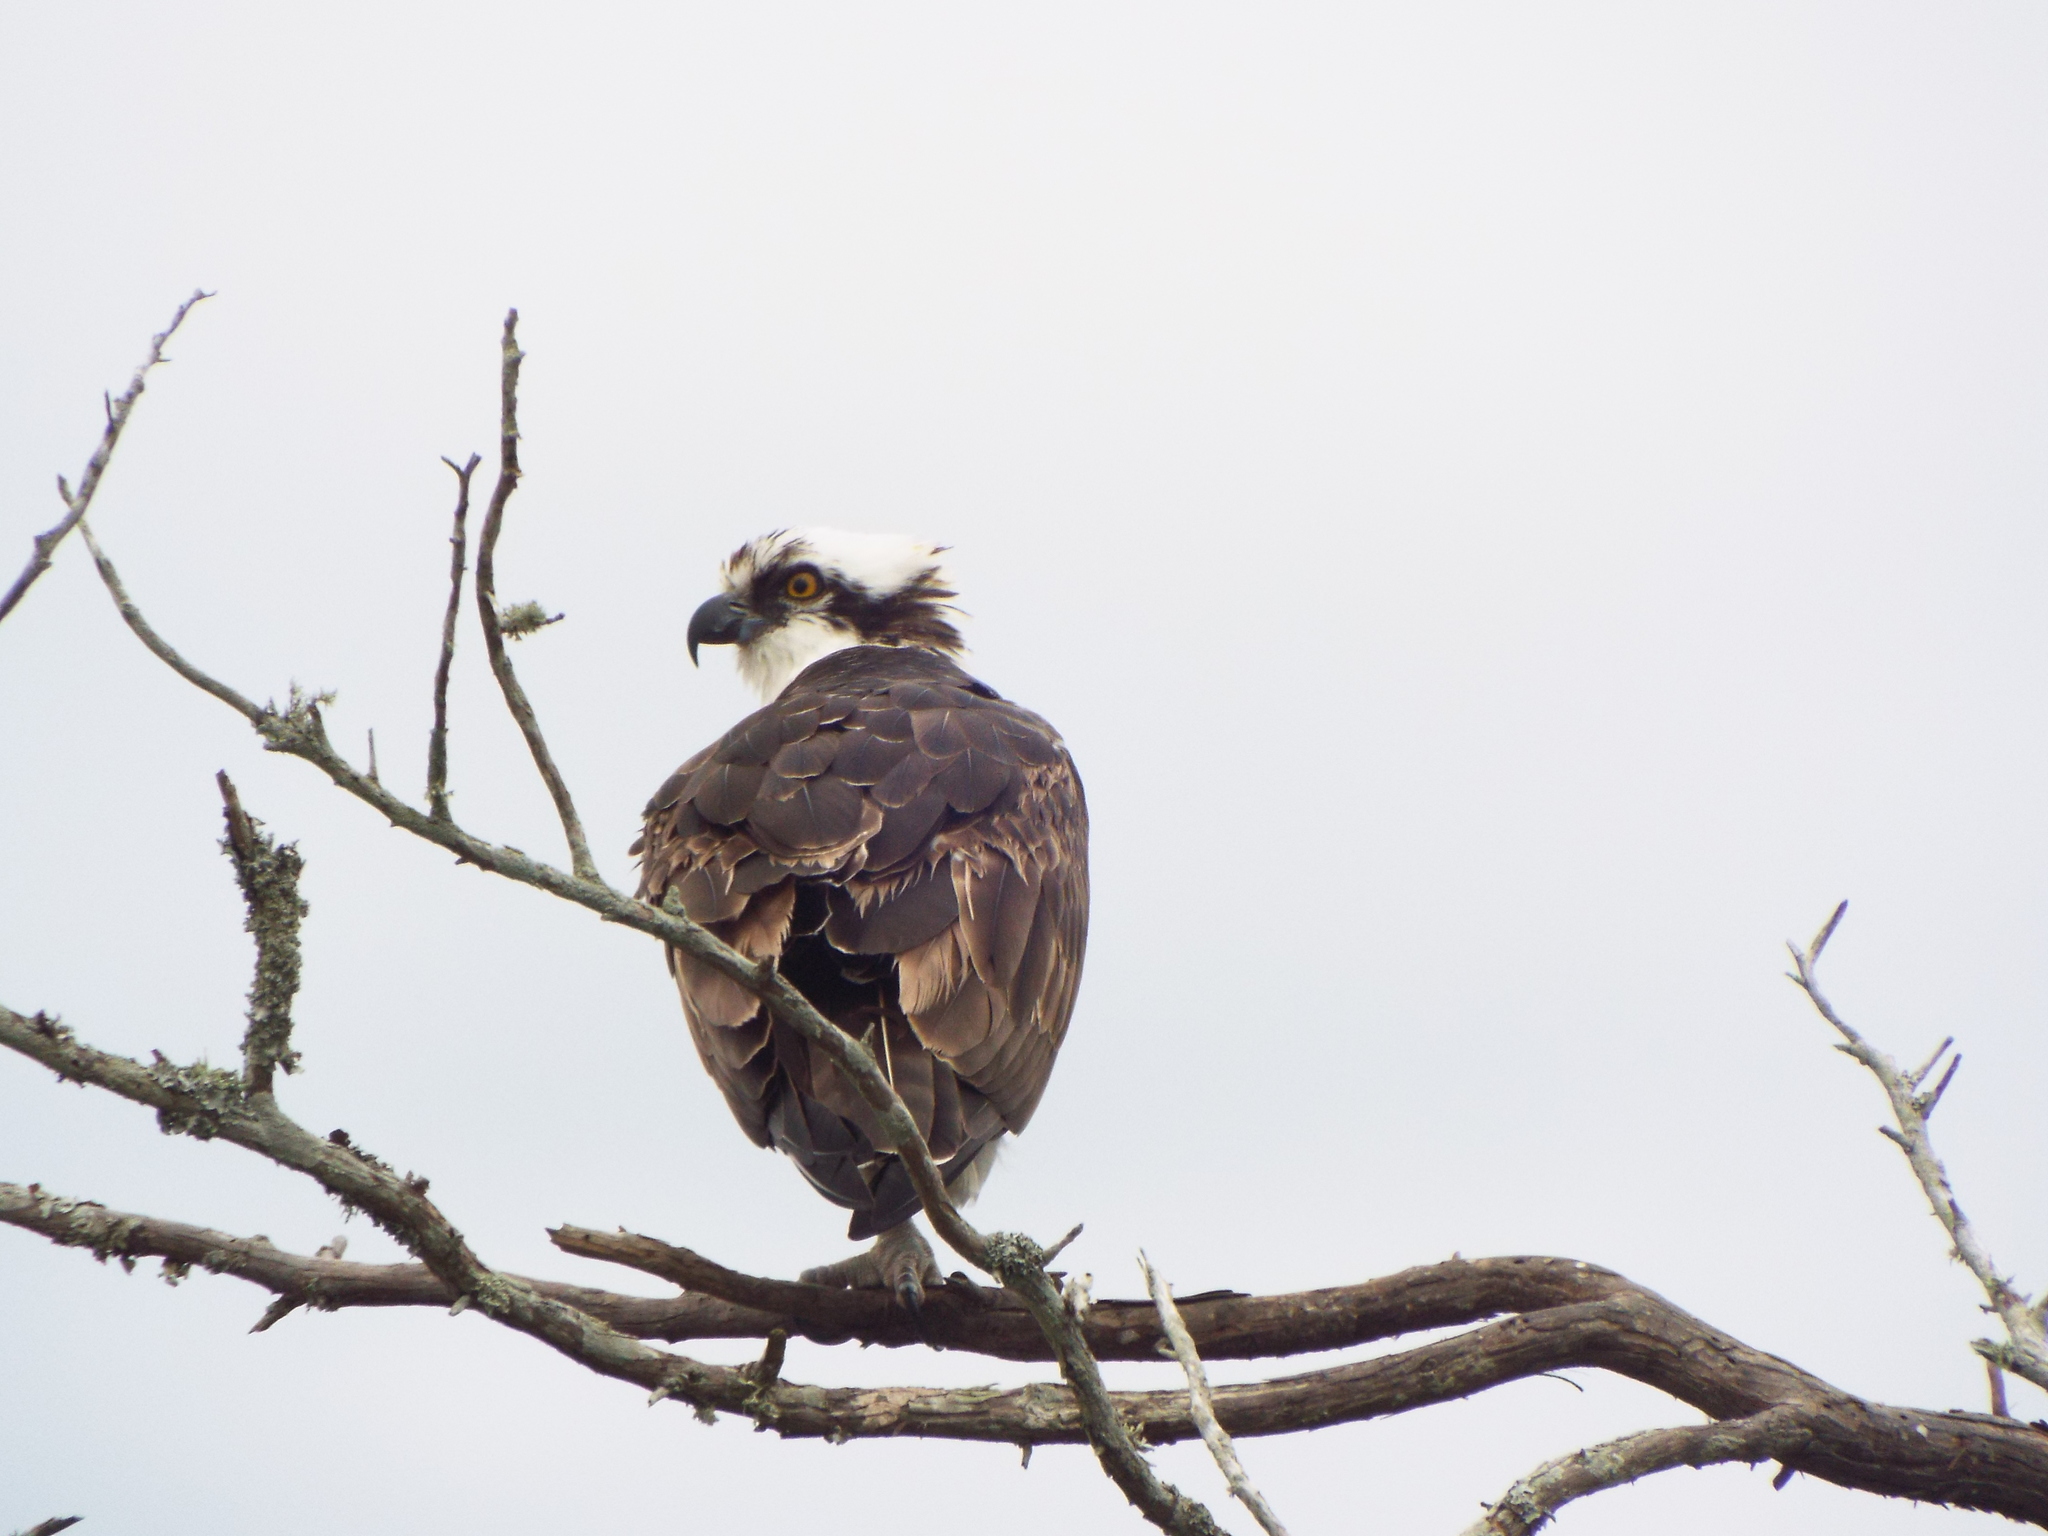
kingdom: Animalia
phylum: Chordata
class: Aves
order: Accipitriformes
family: Pandionidae
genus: Pandion
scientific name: Pandion haliaetus
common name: Osprey
